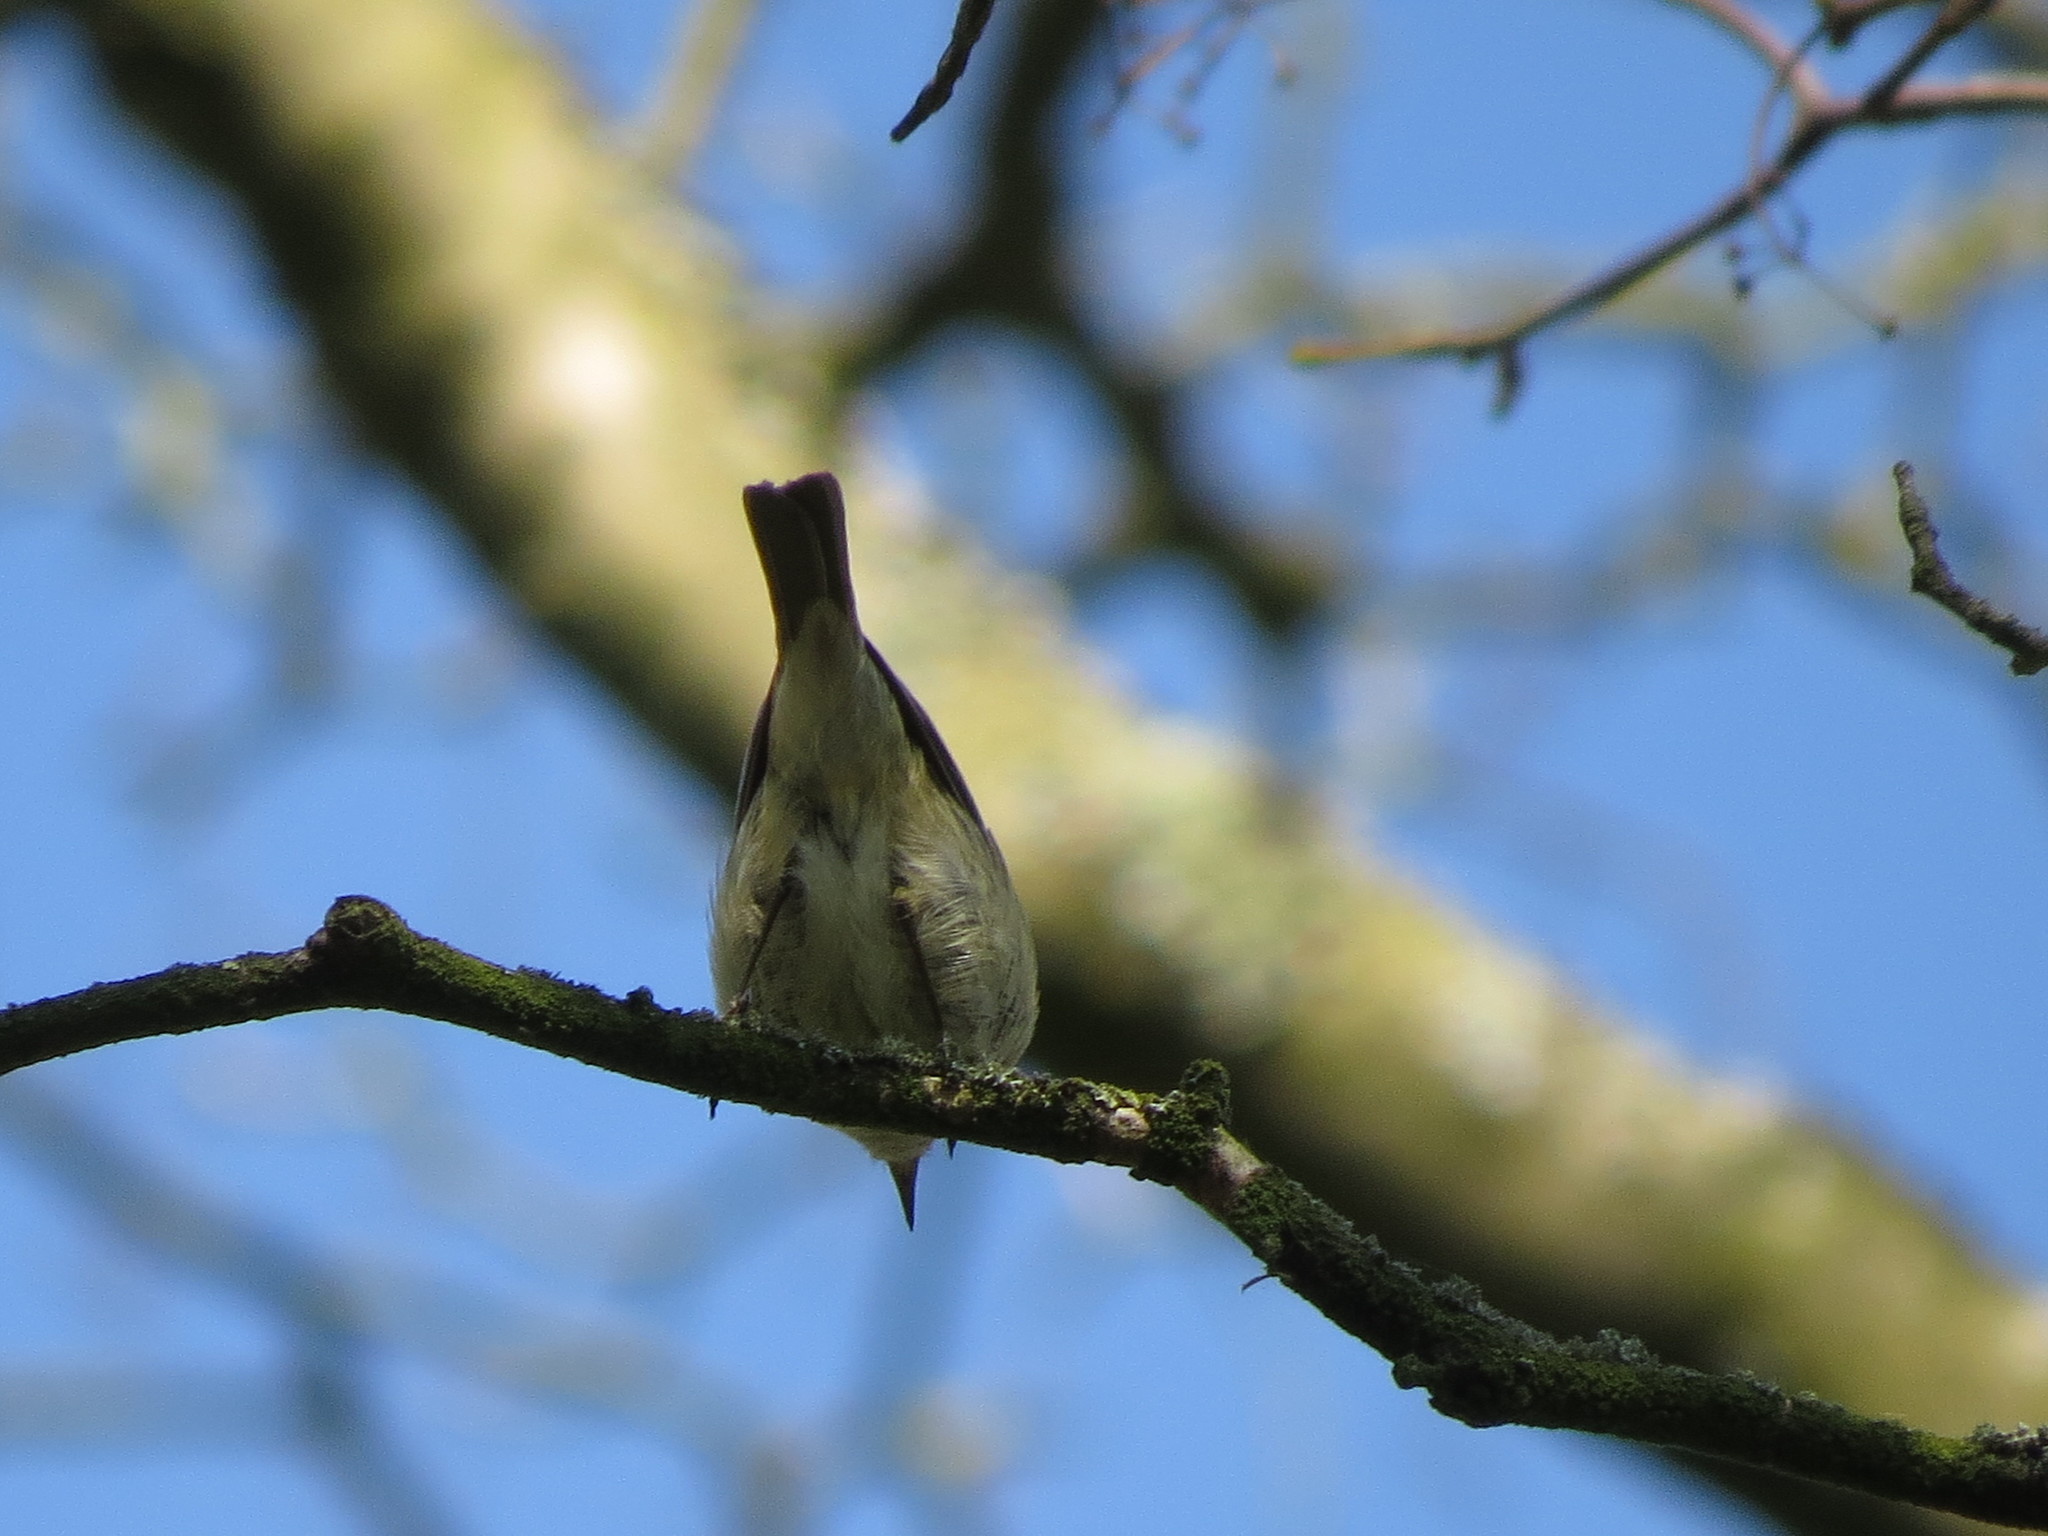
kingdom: Animalia
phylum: Chordata
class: Aves
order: Passeriformes
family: Phylloscopidae
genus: Phylloscopus
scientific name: Phylloscopus collybita
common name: Common chiffchaff
